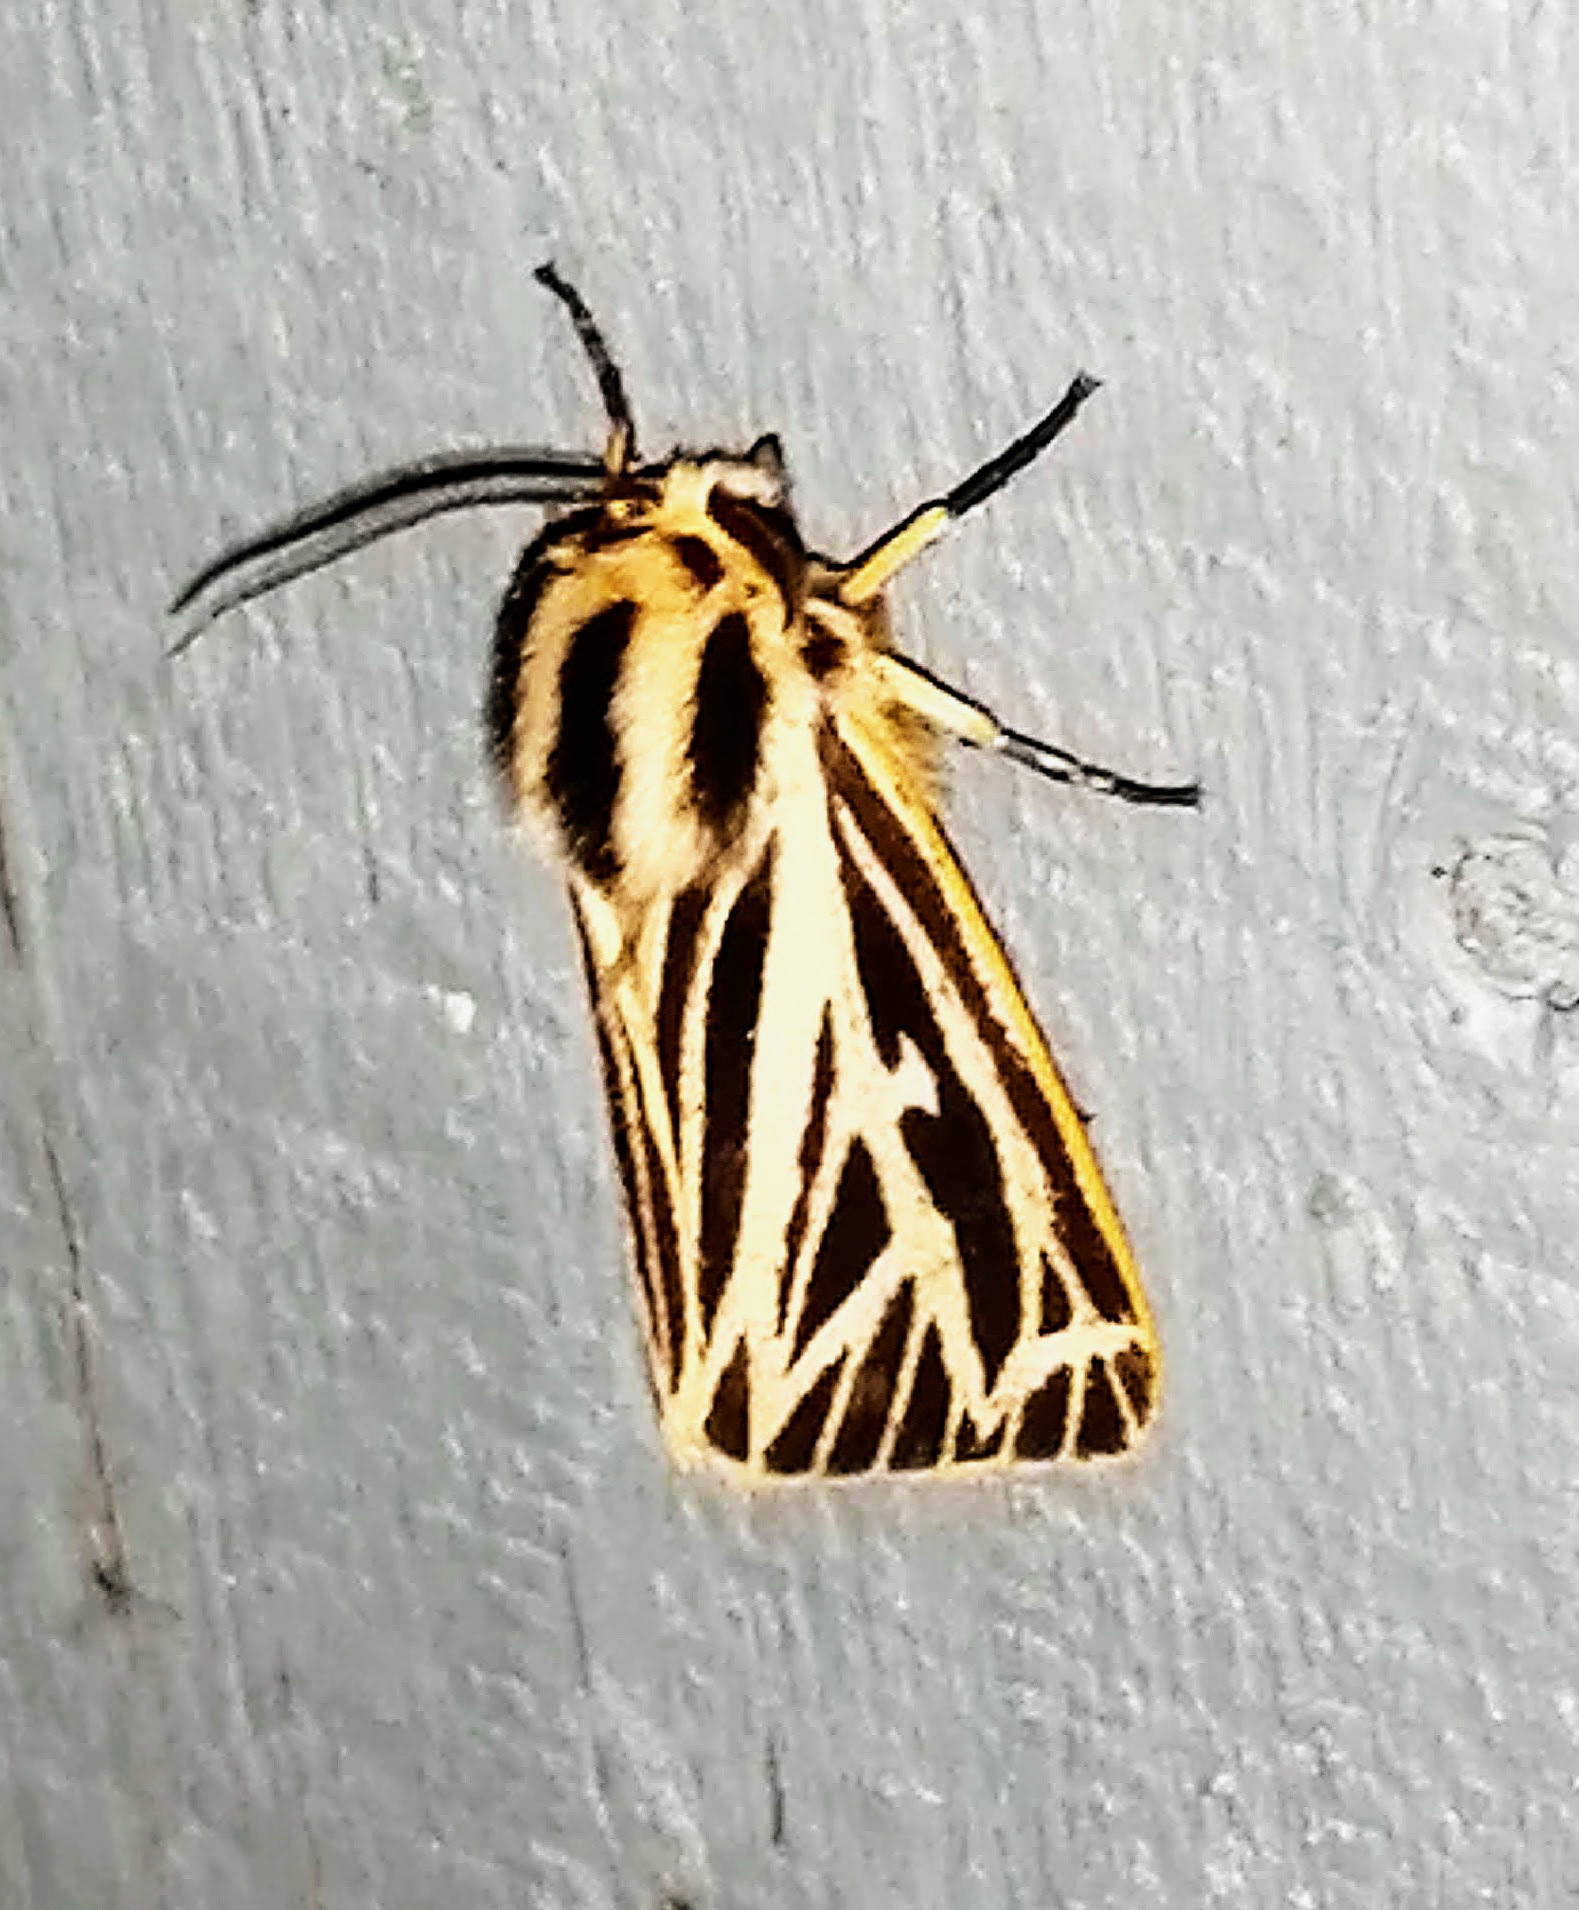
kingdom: Animalia
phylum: Arthropoda
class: Insecta
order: Lepidoptera
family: Erebidae
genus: Grammia
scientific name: Grammia virguncula
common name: Little tiger moth
